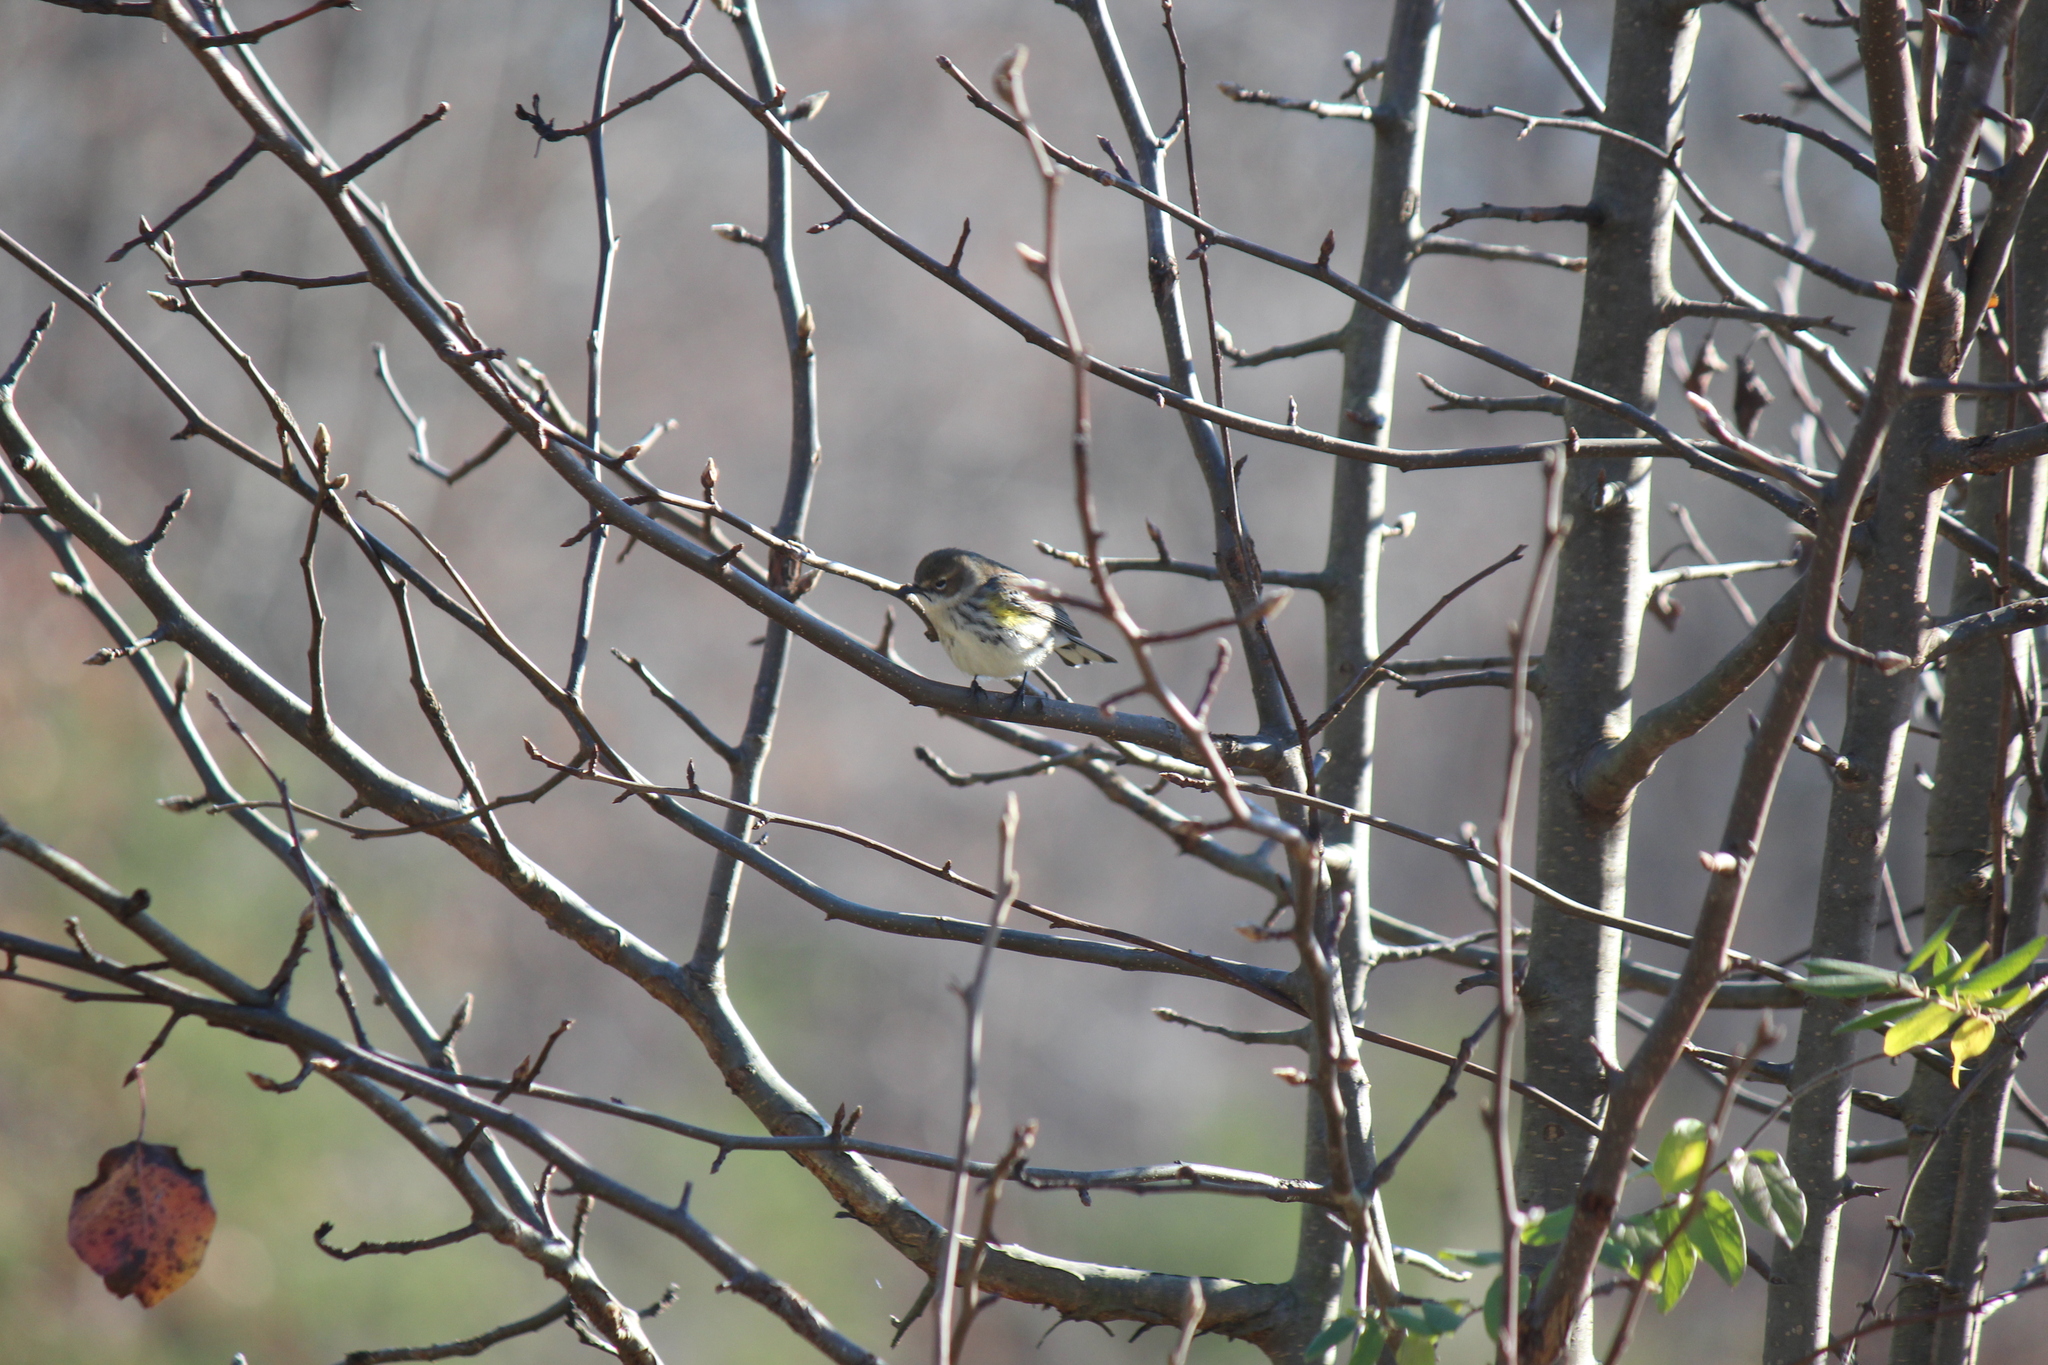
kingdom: Animalia
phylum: Chordata
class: Aves
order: Passeriformes
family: Parulidae
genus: Setophaga
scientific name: Setophaga coronata
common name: Myrtle warbler
